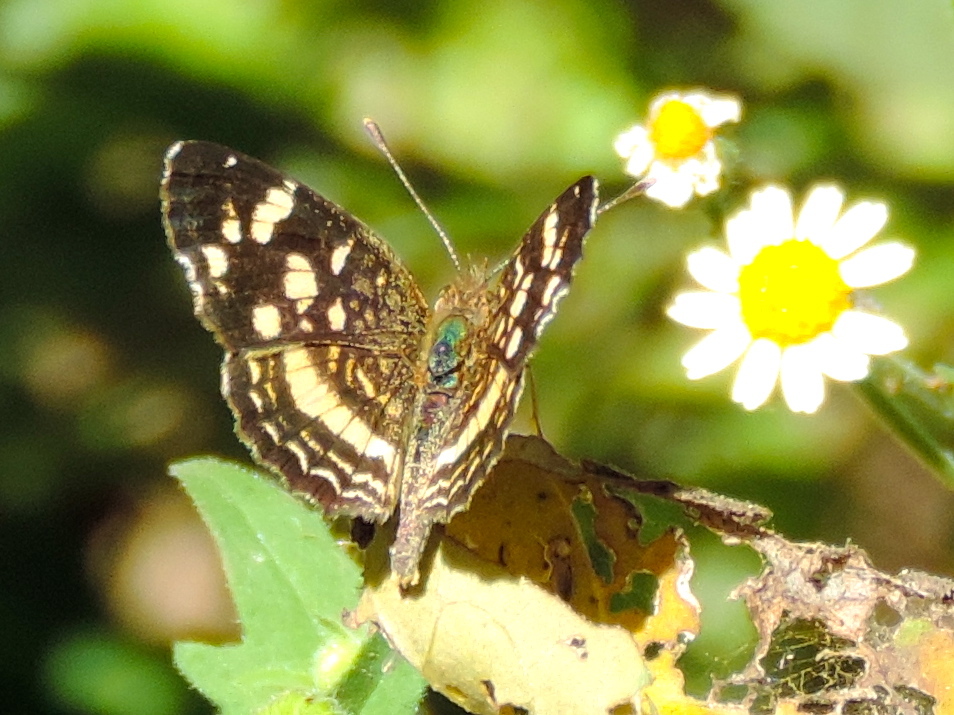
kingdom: Animalia
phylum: Arthropoda
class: Insecta
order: Lepidoptera
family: Nymphalidae
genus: Anthanassa
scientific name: Anthanassa tulcis
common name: Pale-banded crescent
